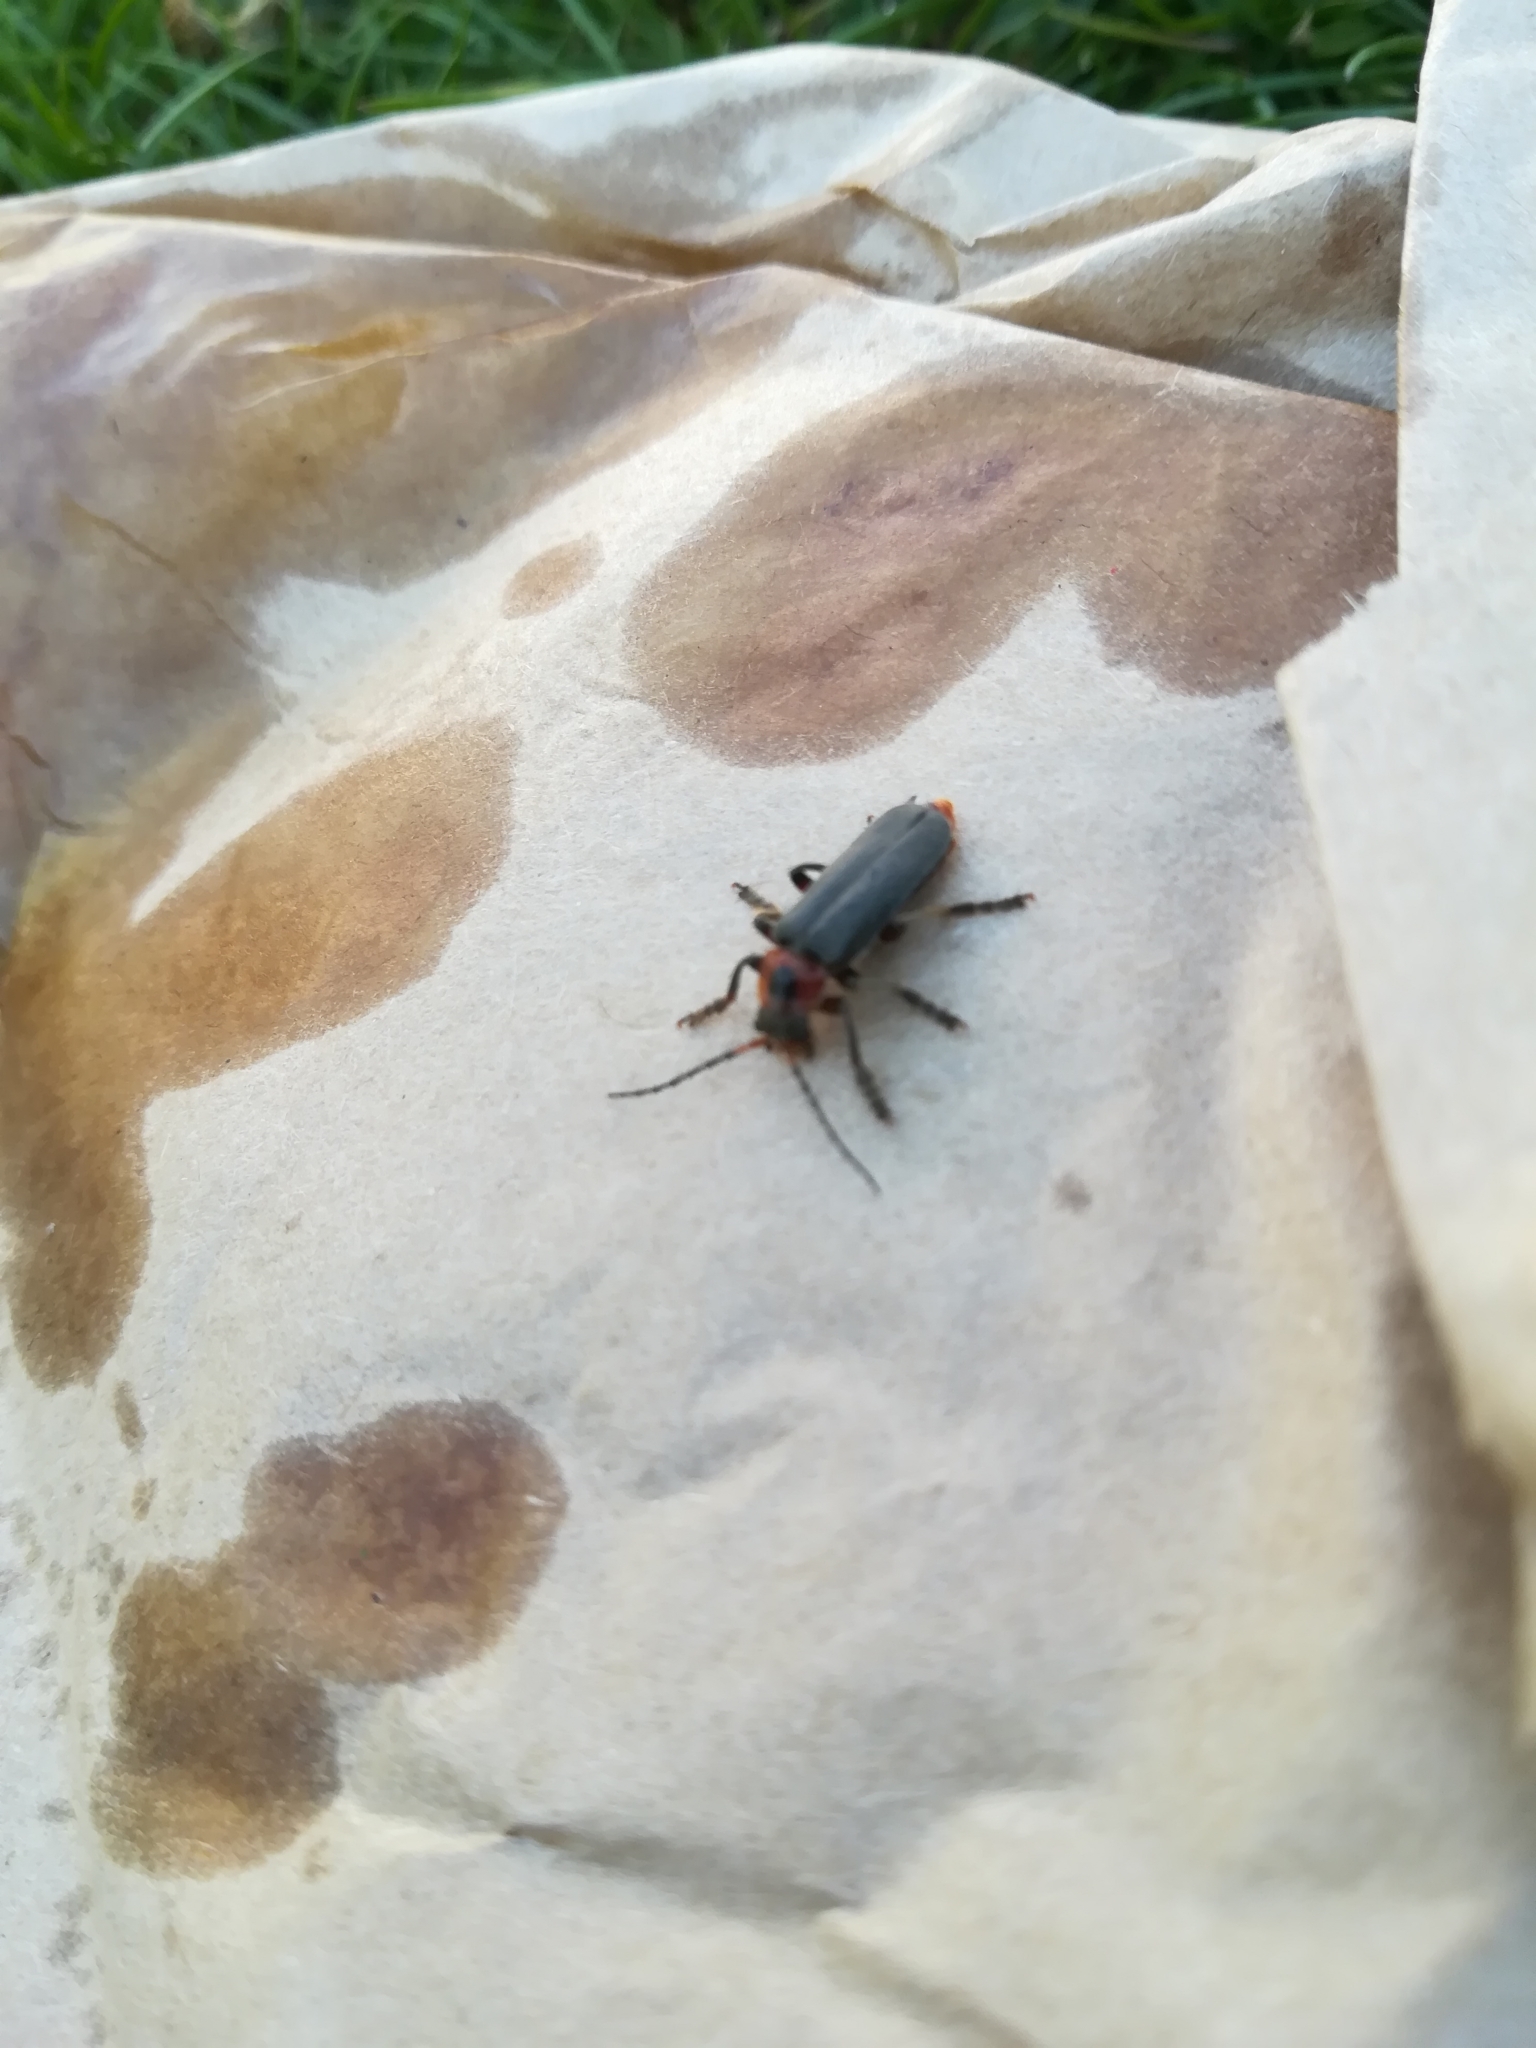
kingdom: Animalia
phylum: Arthropoda
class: Insecta
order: Coleoptera
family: Cantharidae
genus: Cantharis
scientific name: Cantharis rustica
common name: Soldier beetle
